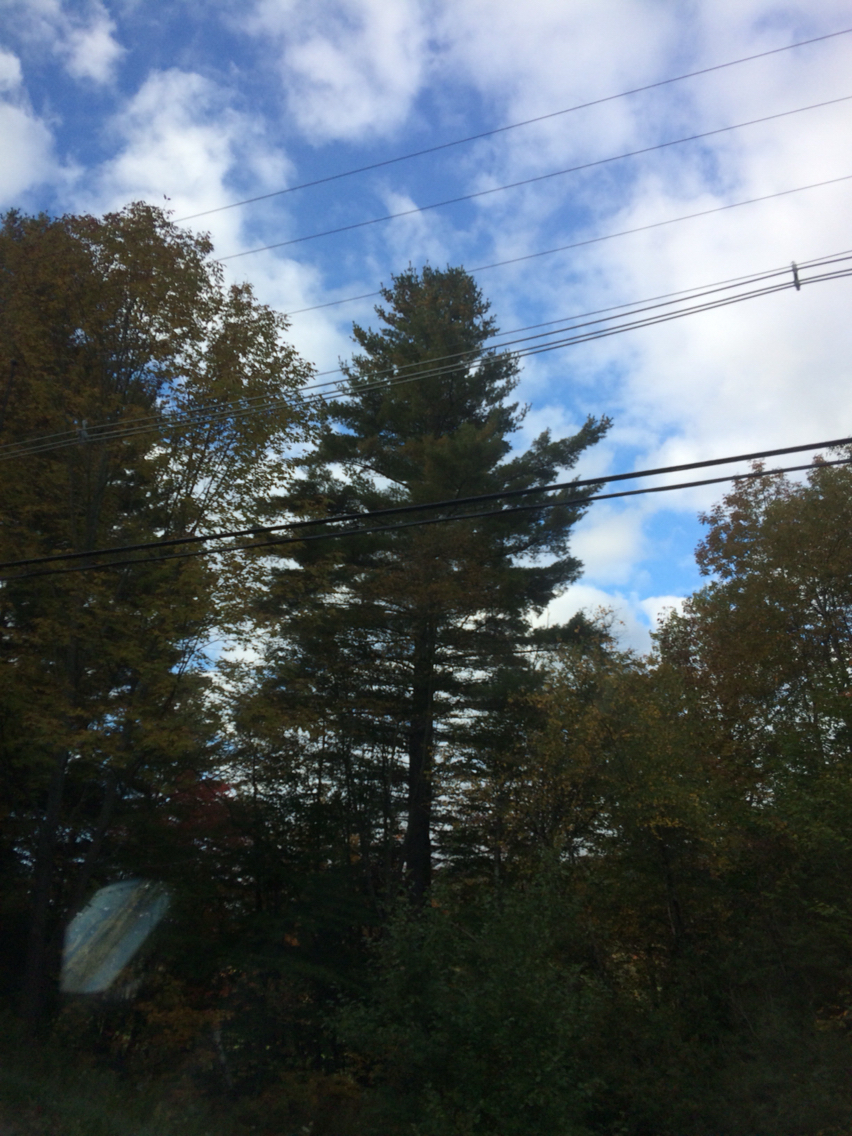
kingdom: Plantae
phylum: Tracheophyta
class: Pinopsida
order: Pinales
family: Pinaceae
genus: Pinus
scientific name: Pinus strobus
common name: Weymouth pine
